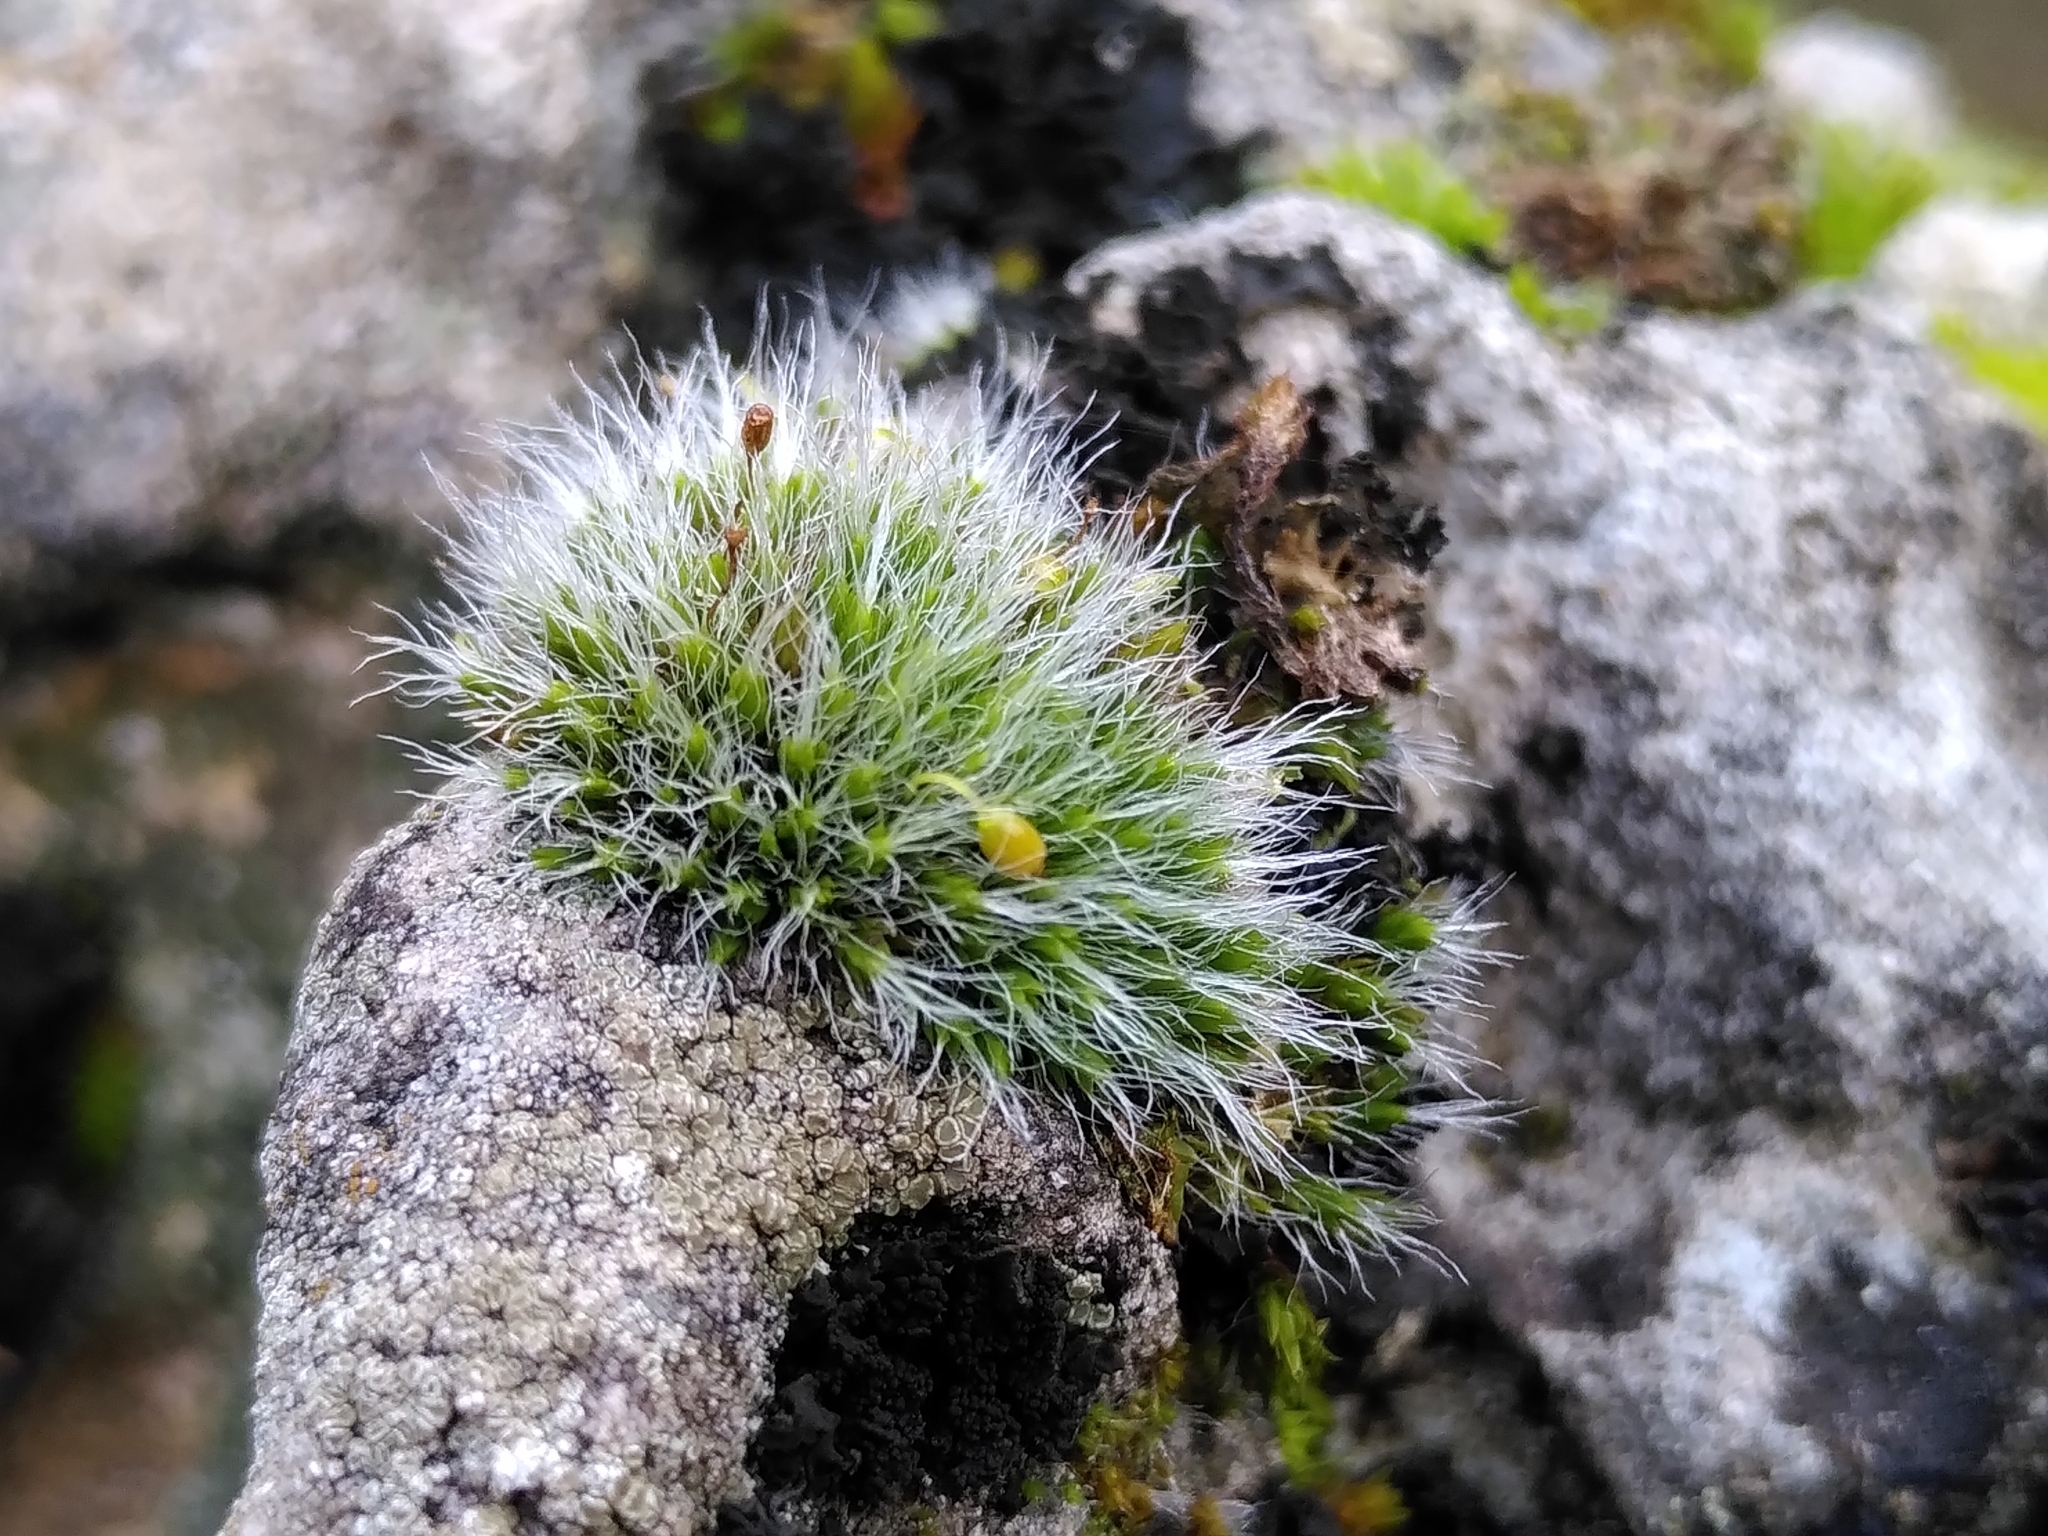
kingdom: Plantae
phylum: Bryophyta
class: Bryopsida
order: Grimmiales
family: Grimmiaceae
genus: Grimmia
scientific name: Grimmia pulvinata
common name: Grey-cushioned grimmia
